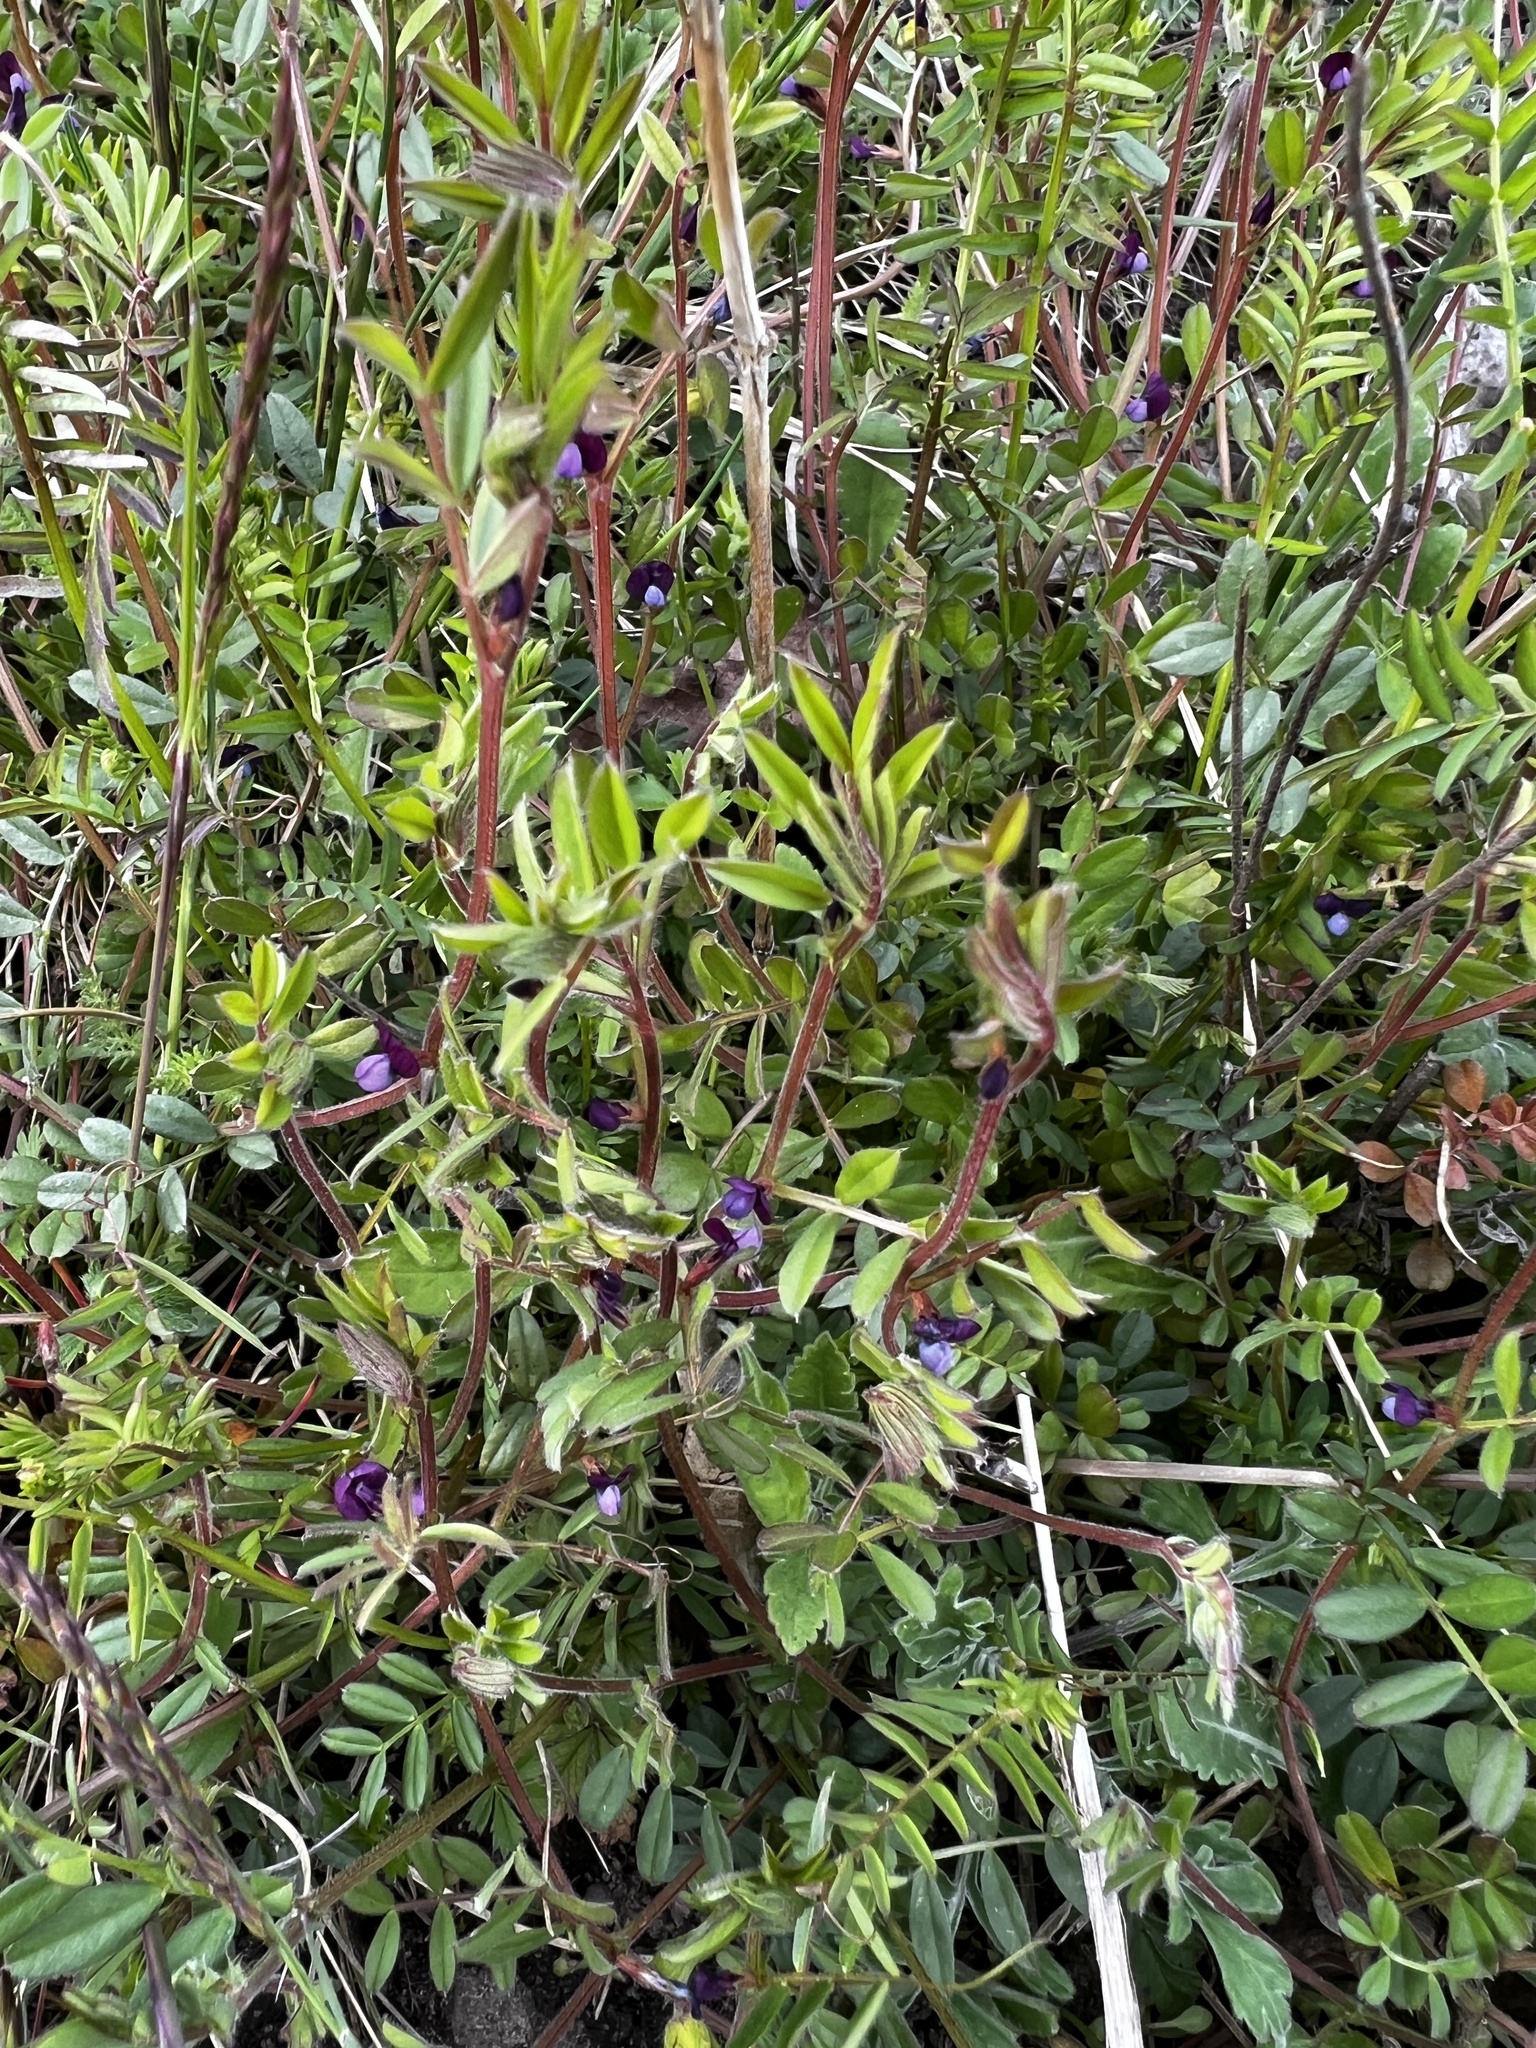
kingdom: Plantae
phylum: Tracheophyta
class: Magnoliopsida
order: Fabales
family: Fabaceae
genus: Vicia
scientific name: Vicia lathyroides
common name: Spring vetch
